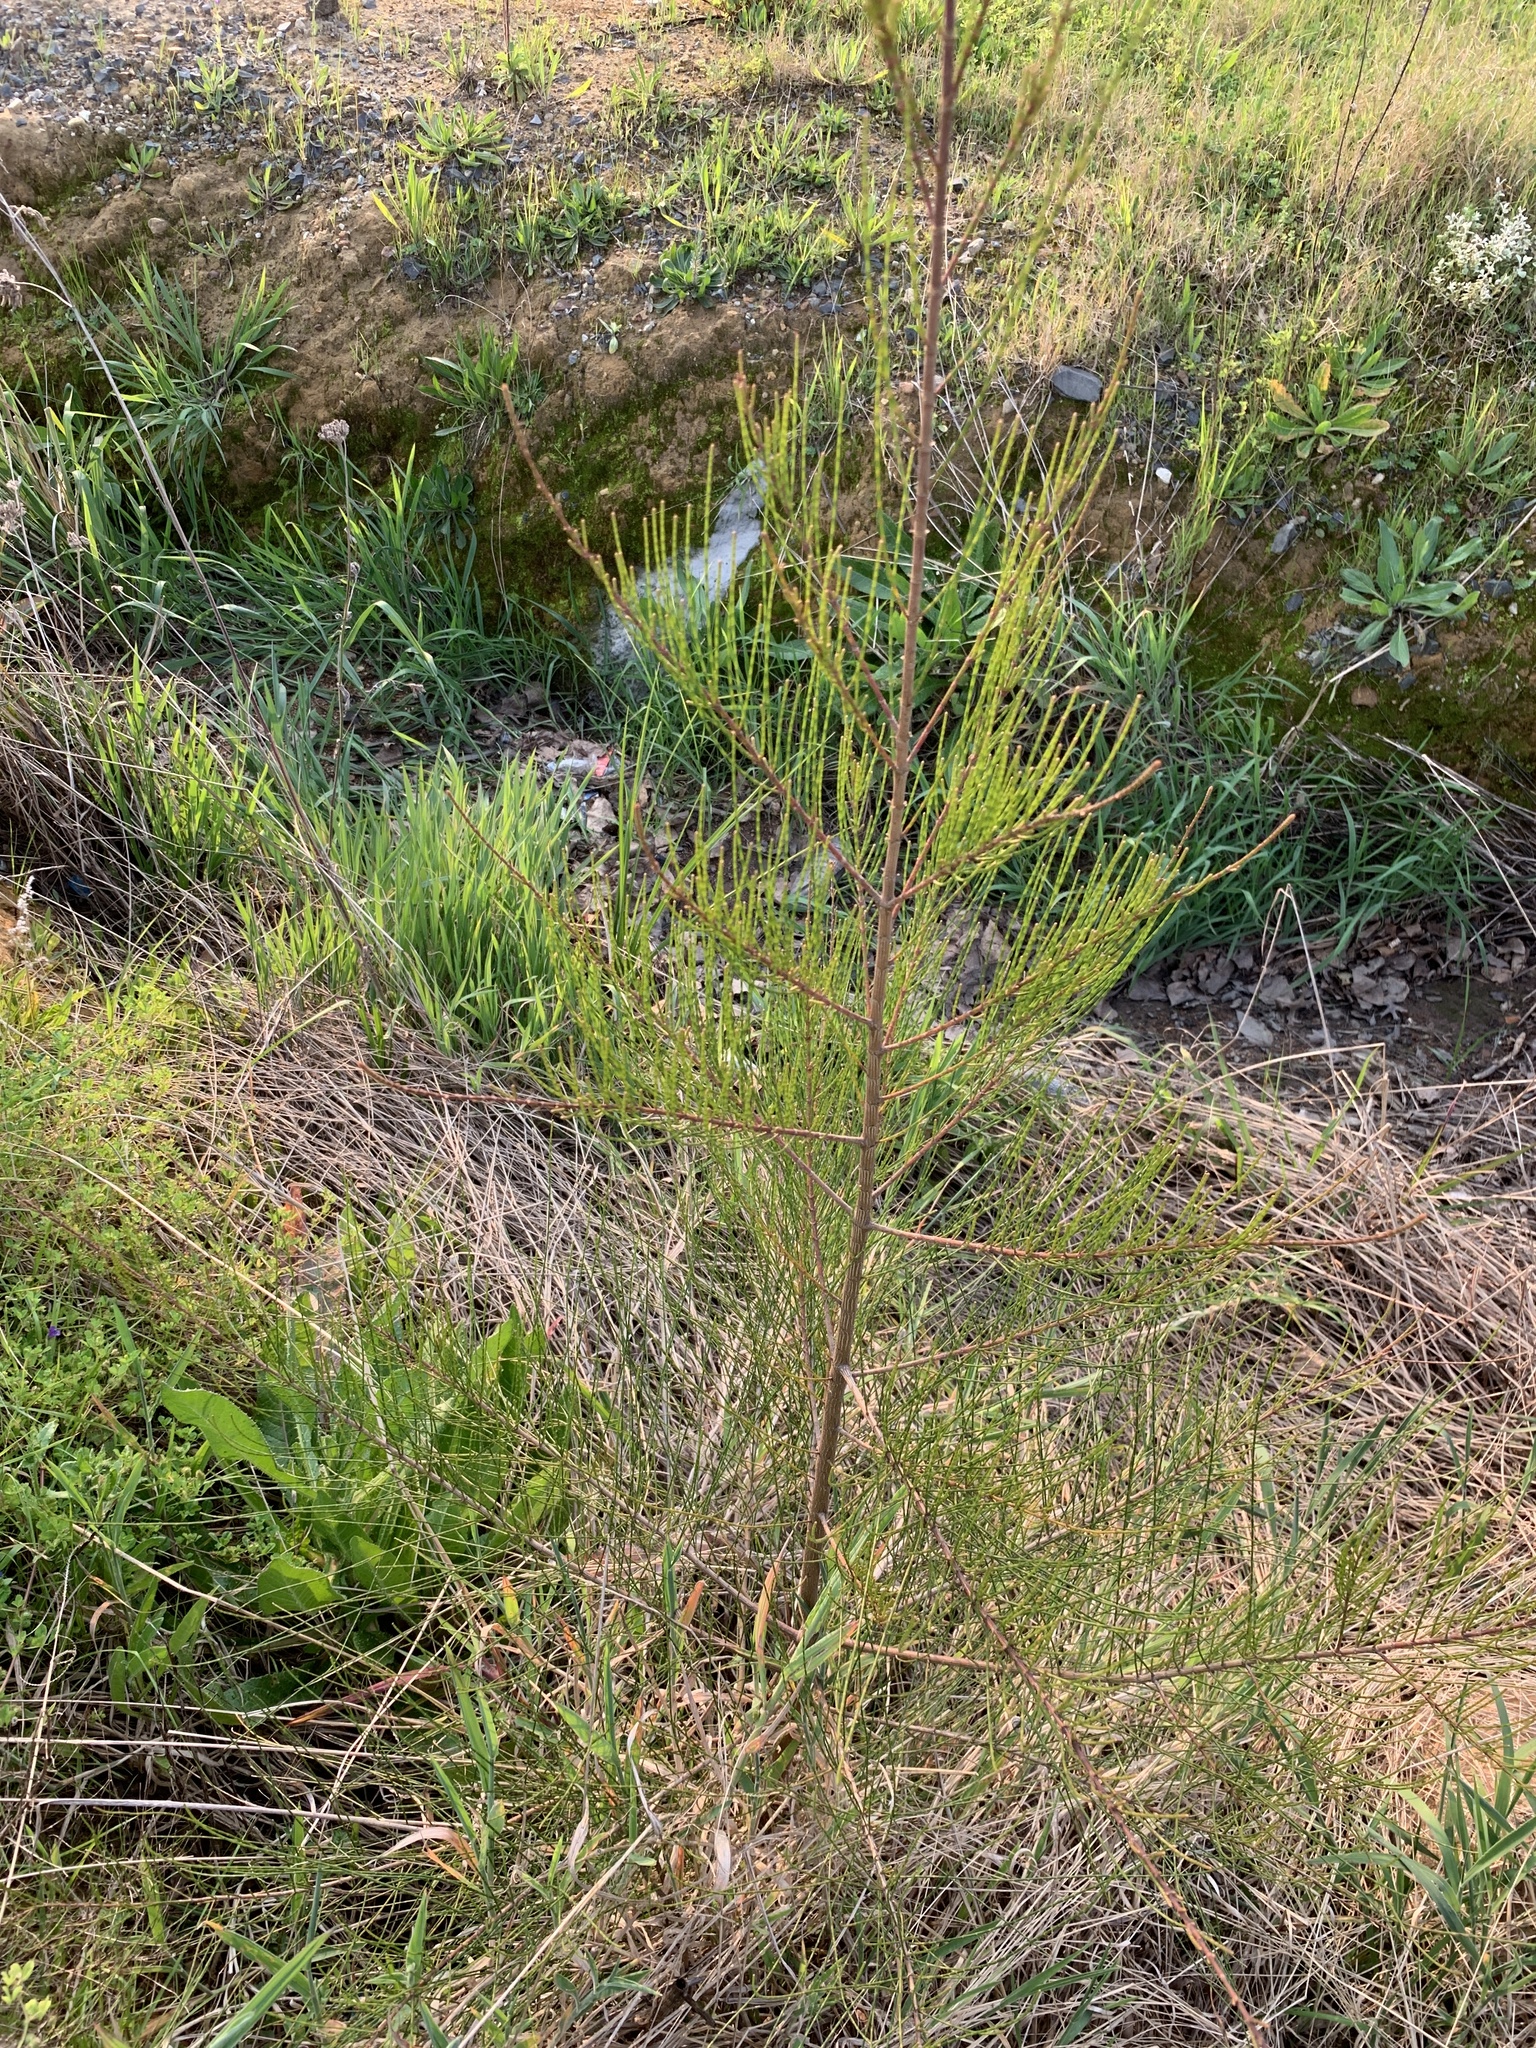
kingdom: Plantae
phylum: Tracheophyta
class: Magnoliopsida
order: Fagales
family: Casuarinaceae
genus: Casuarina
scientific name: Casuarina cunninghamiana
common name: River sheoak
